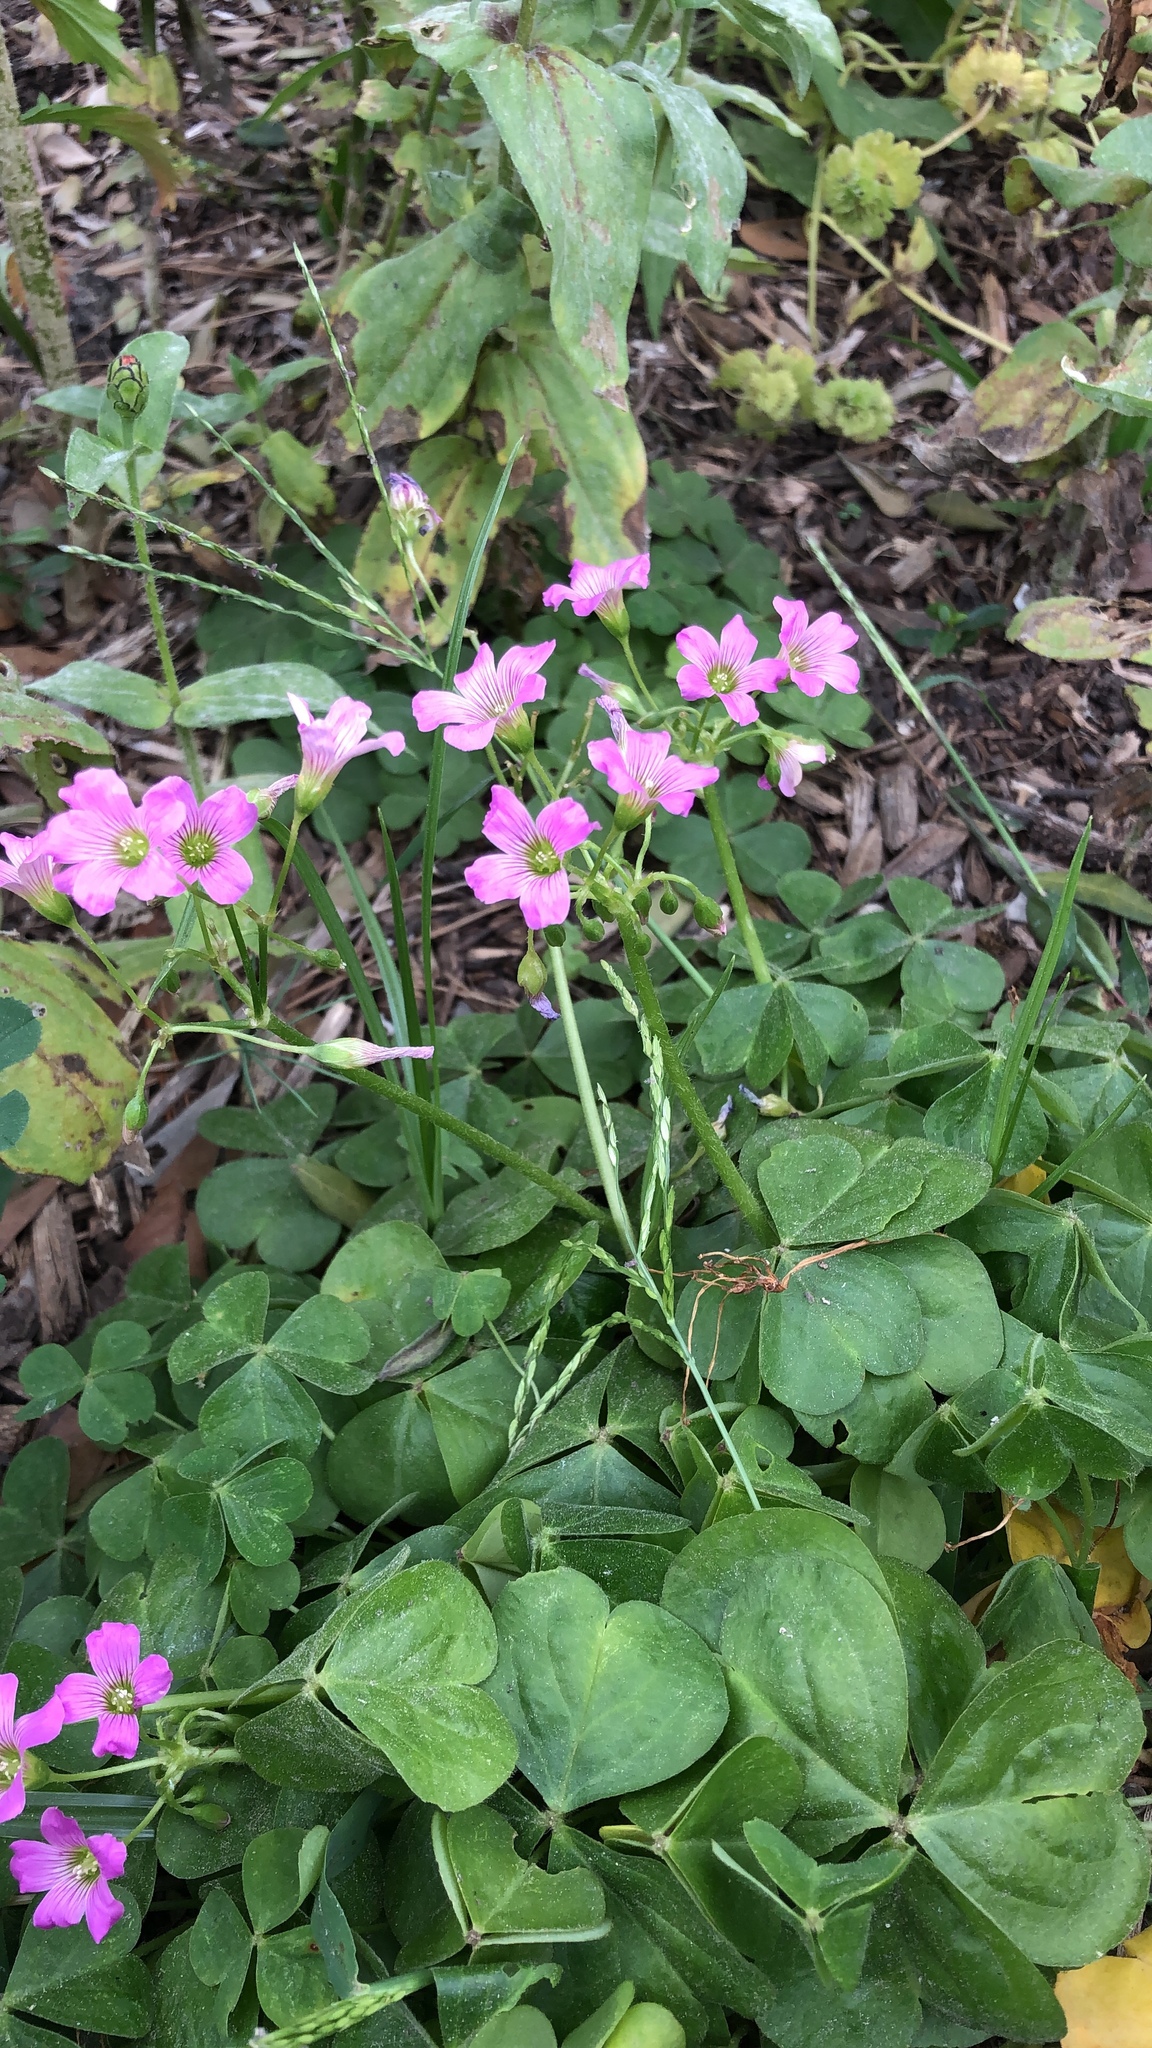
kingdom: Plantae
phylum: Tracheophyta
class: Magnoliopsida
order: Oxalidales
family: Oxalidaceae
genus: Oxalis
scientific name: Oxalis debilis
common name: Large-flowered pink-sorrel
